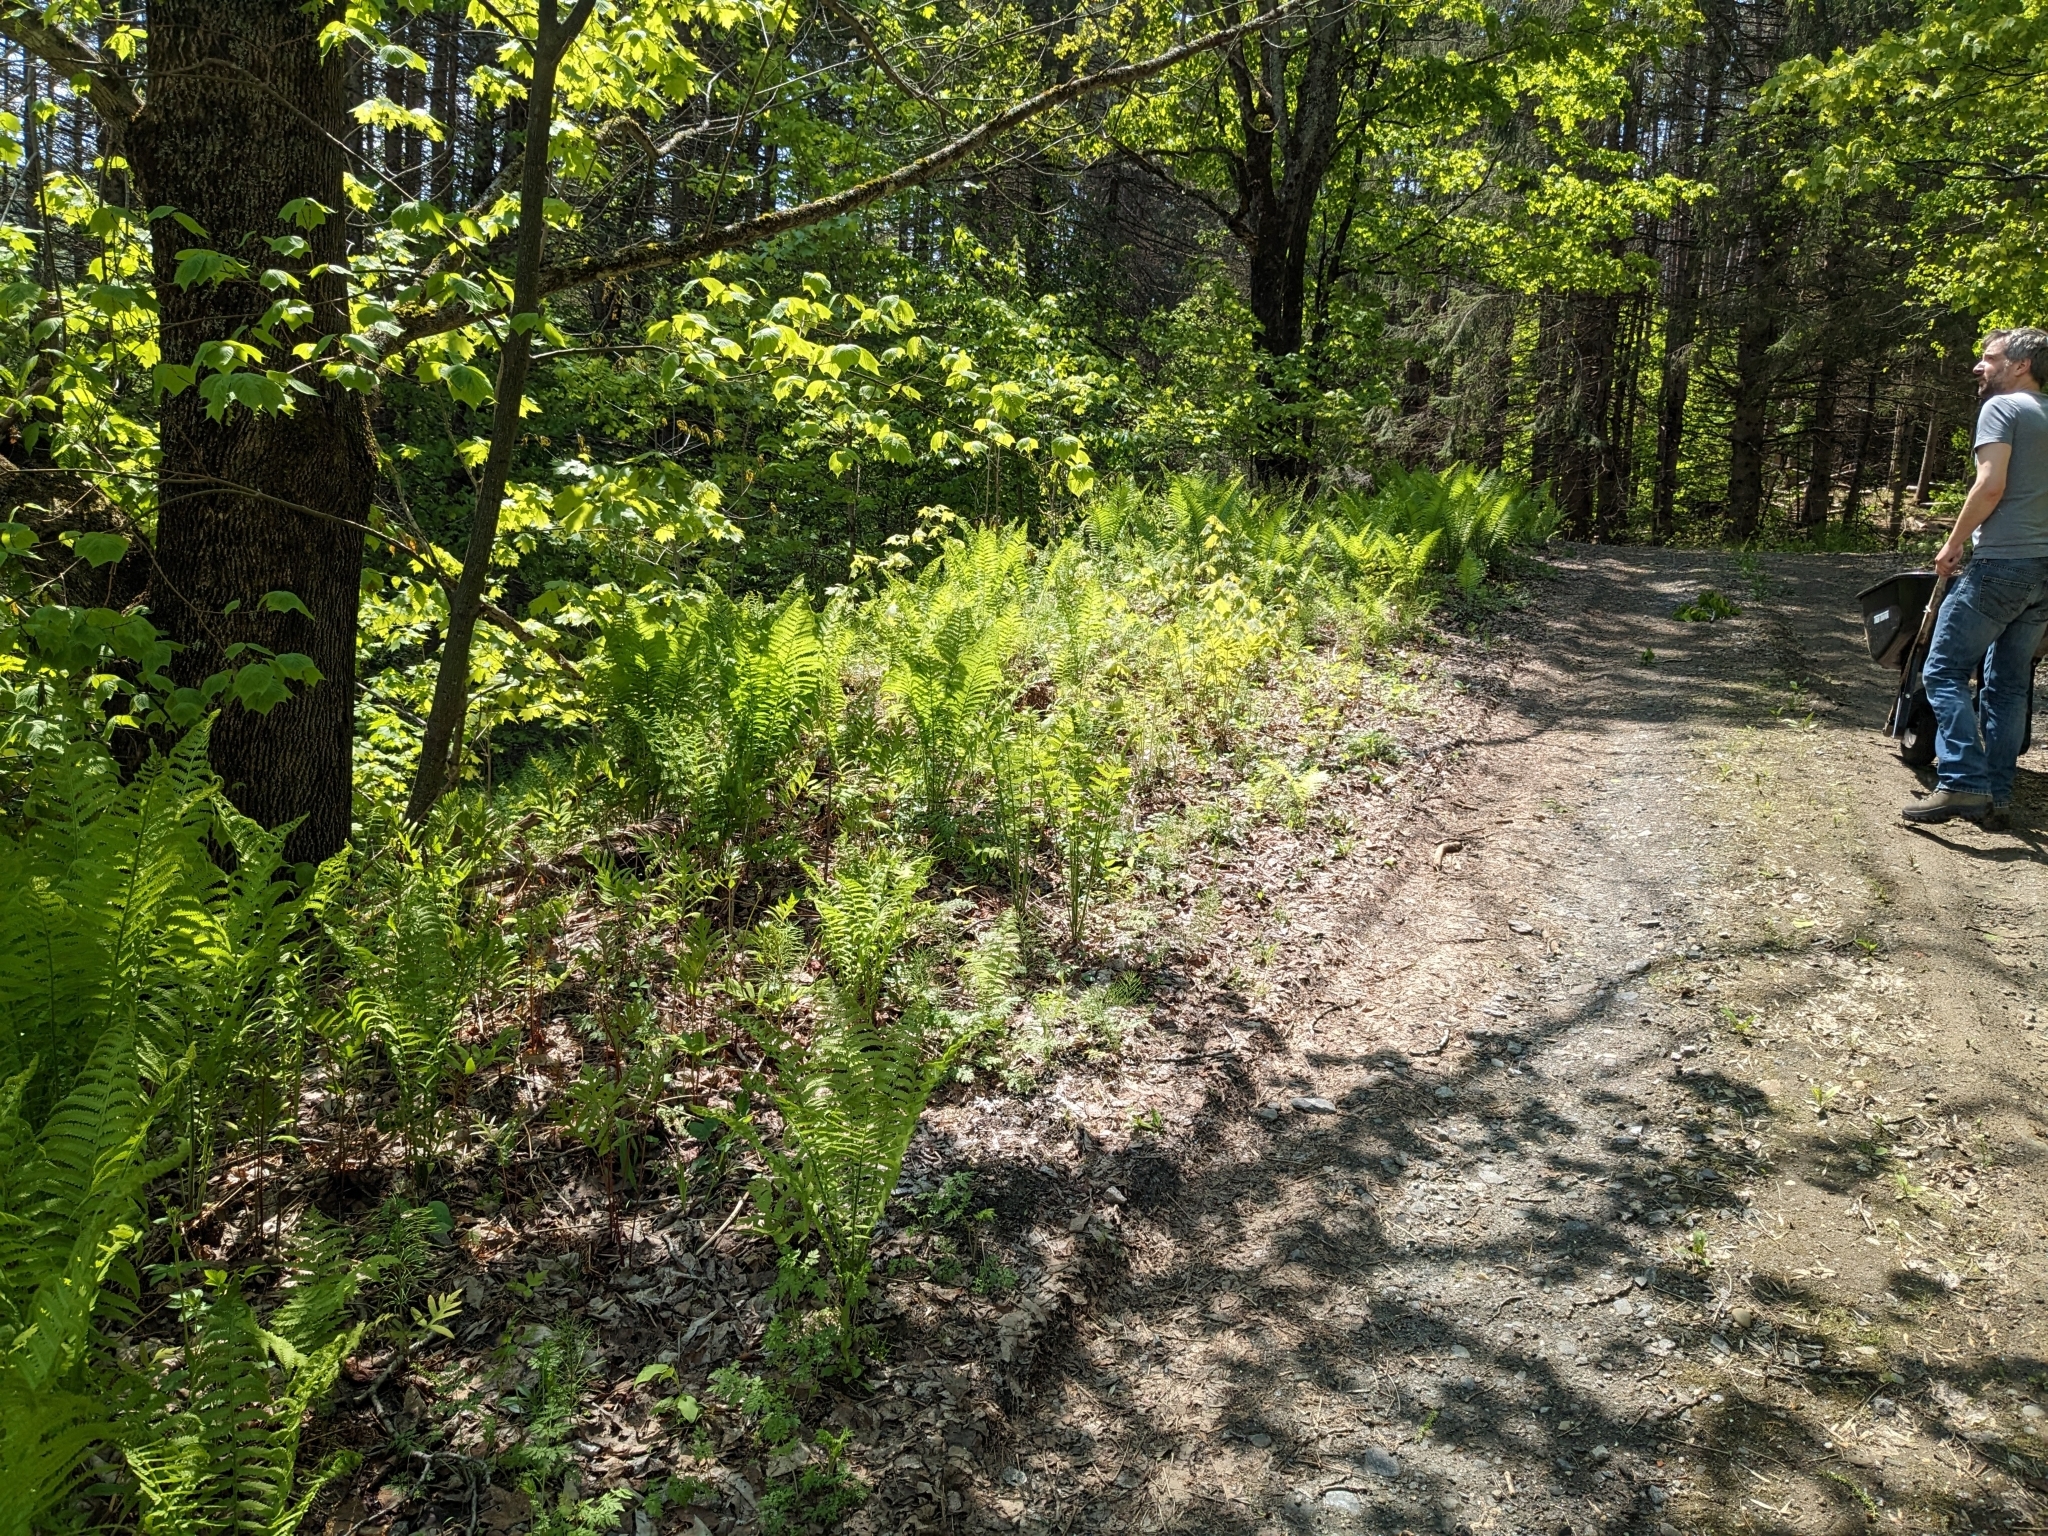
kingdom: Plantae
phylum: Tracheophyta
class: Polypodiopsida
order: Polypodiales
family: Onocleaceae
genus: Matteuccia
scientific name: Matteuccia struthiopteris
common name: Ostrich fern
